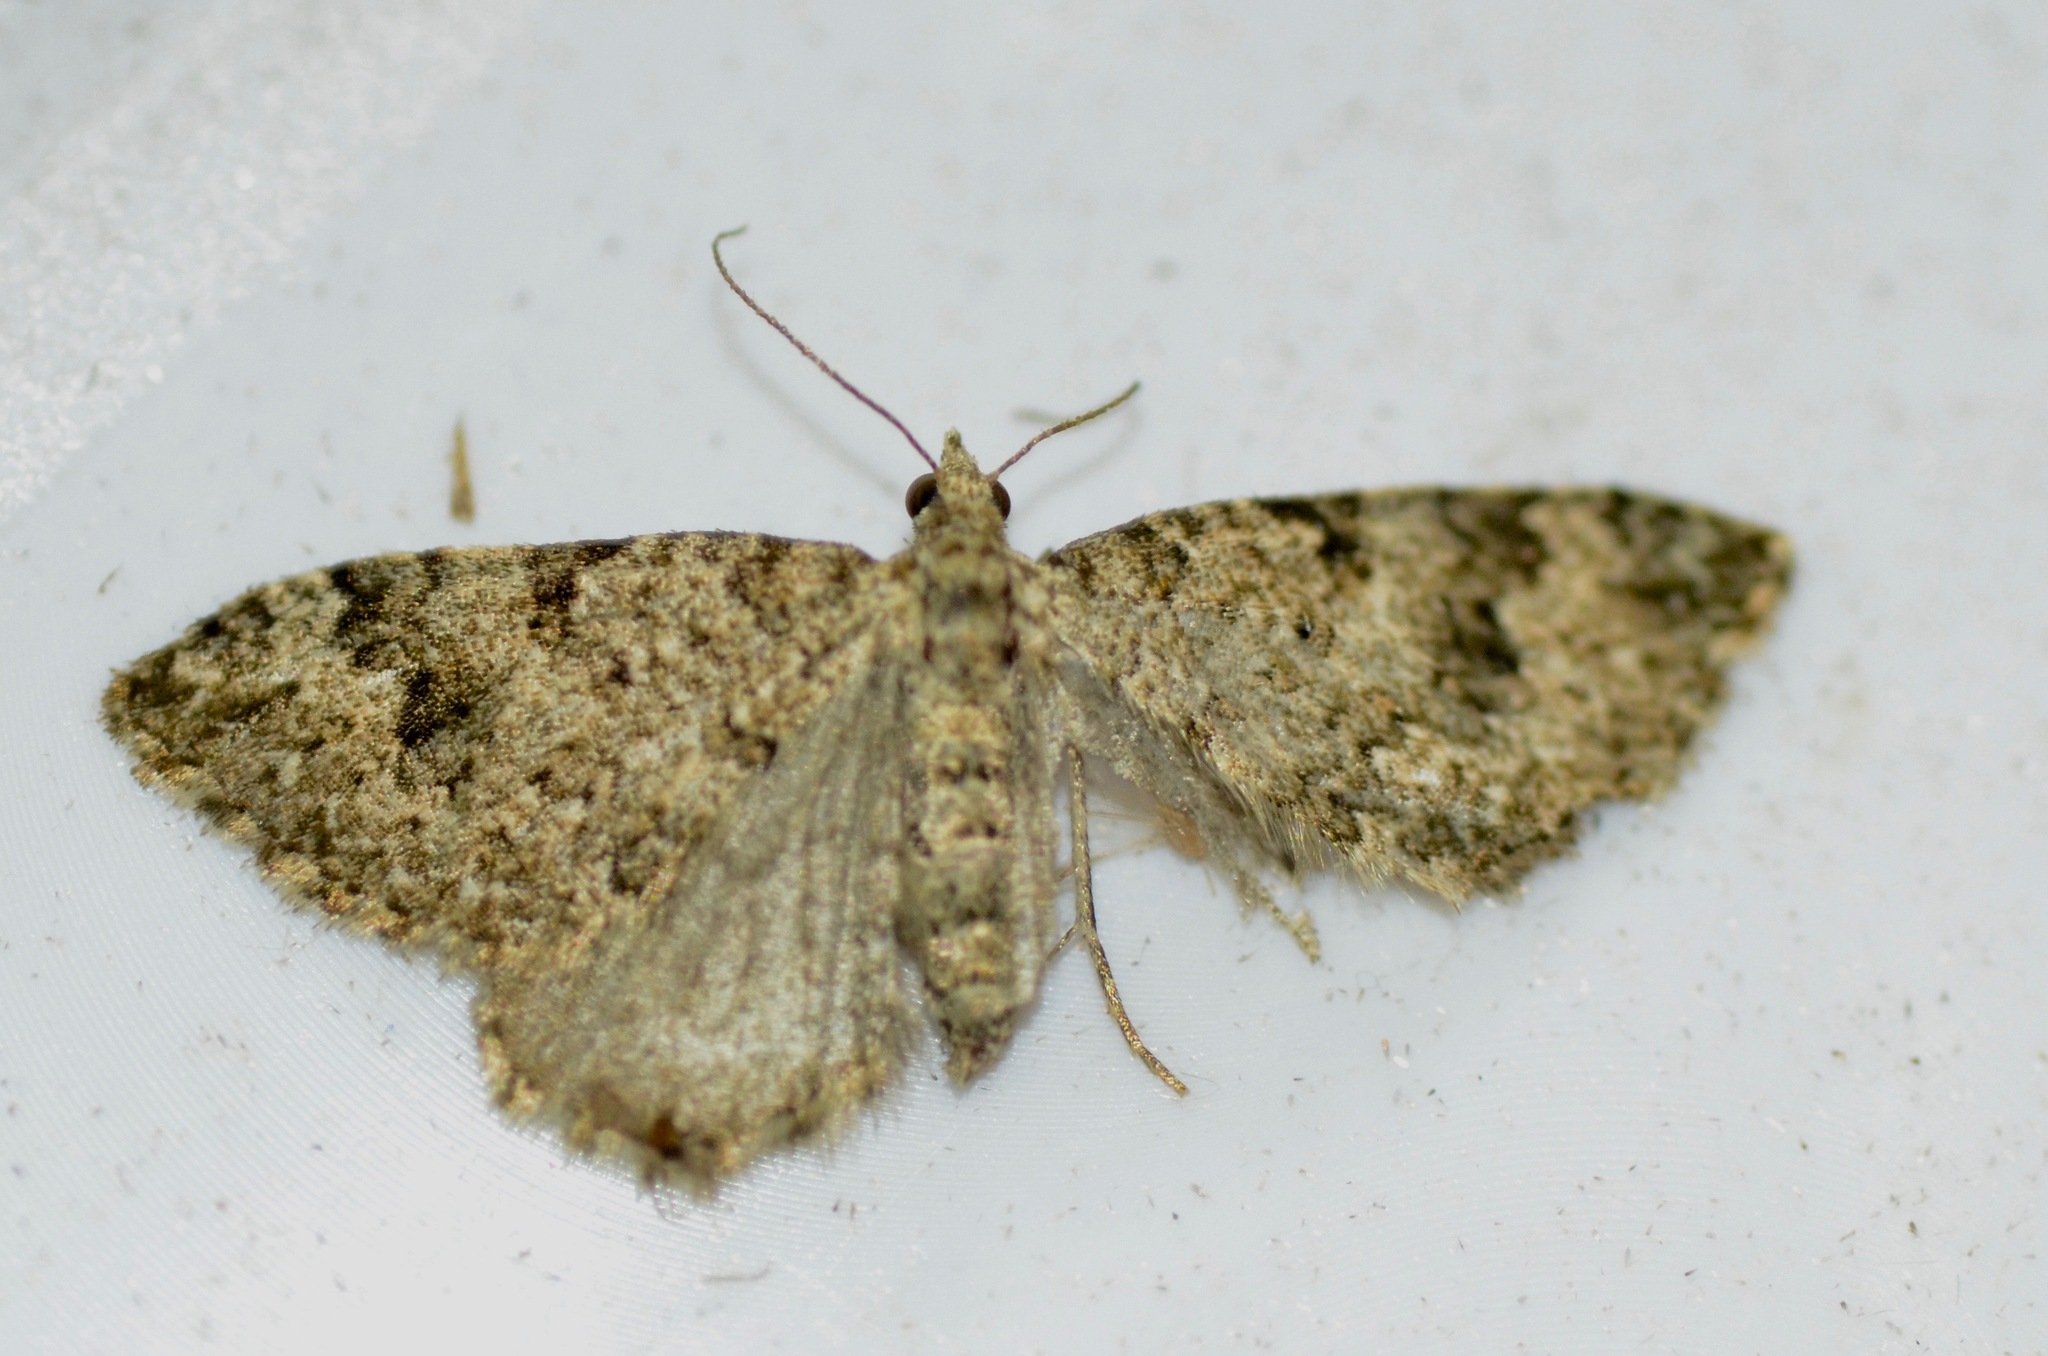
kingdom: Animalia
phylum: Arthropoda
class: Insecta
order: Lepidoptera
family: Geometridae
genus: Helastia
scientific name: Helastia cinerearia
